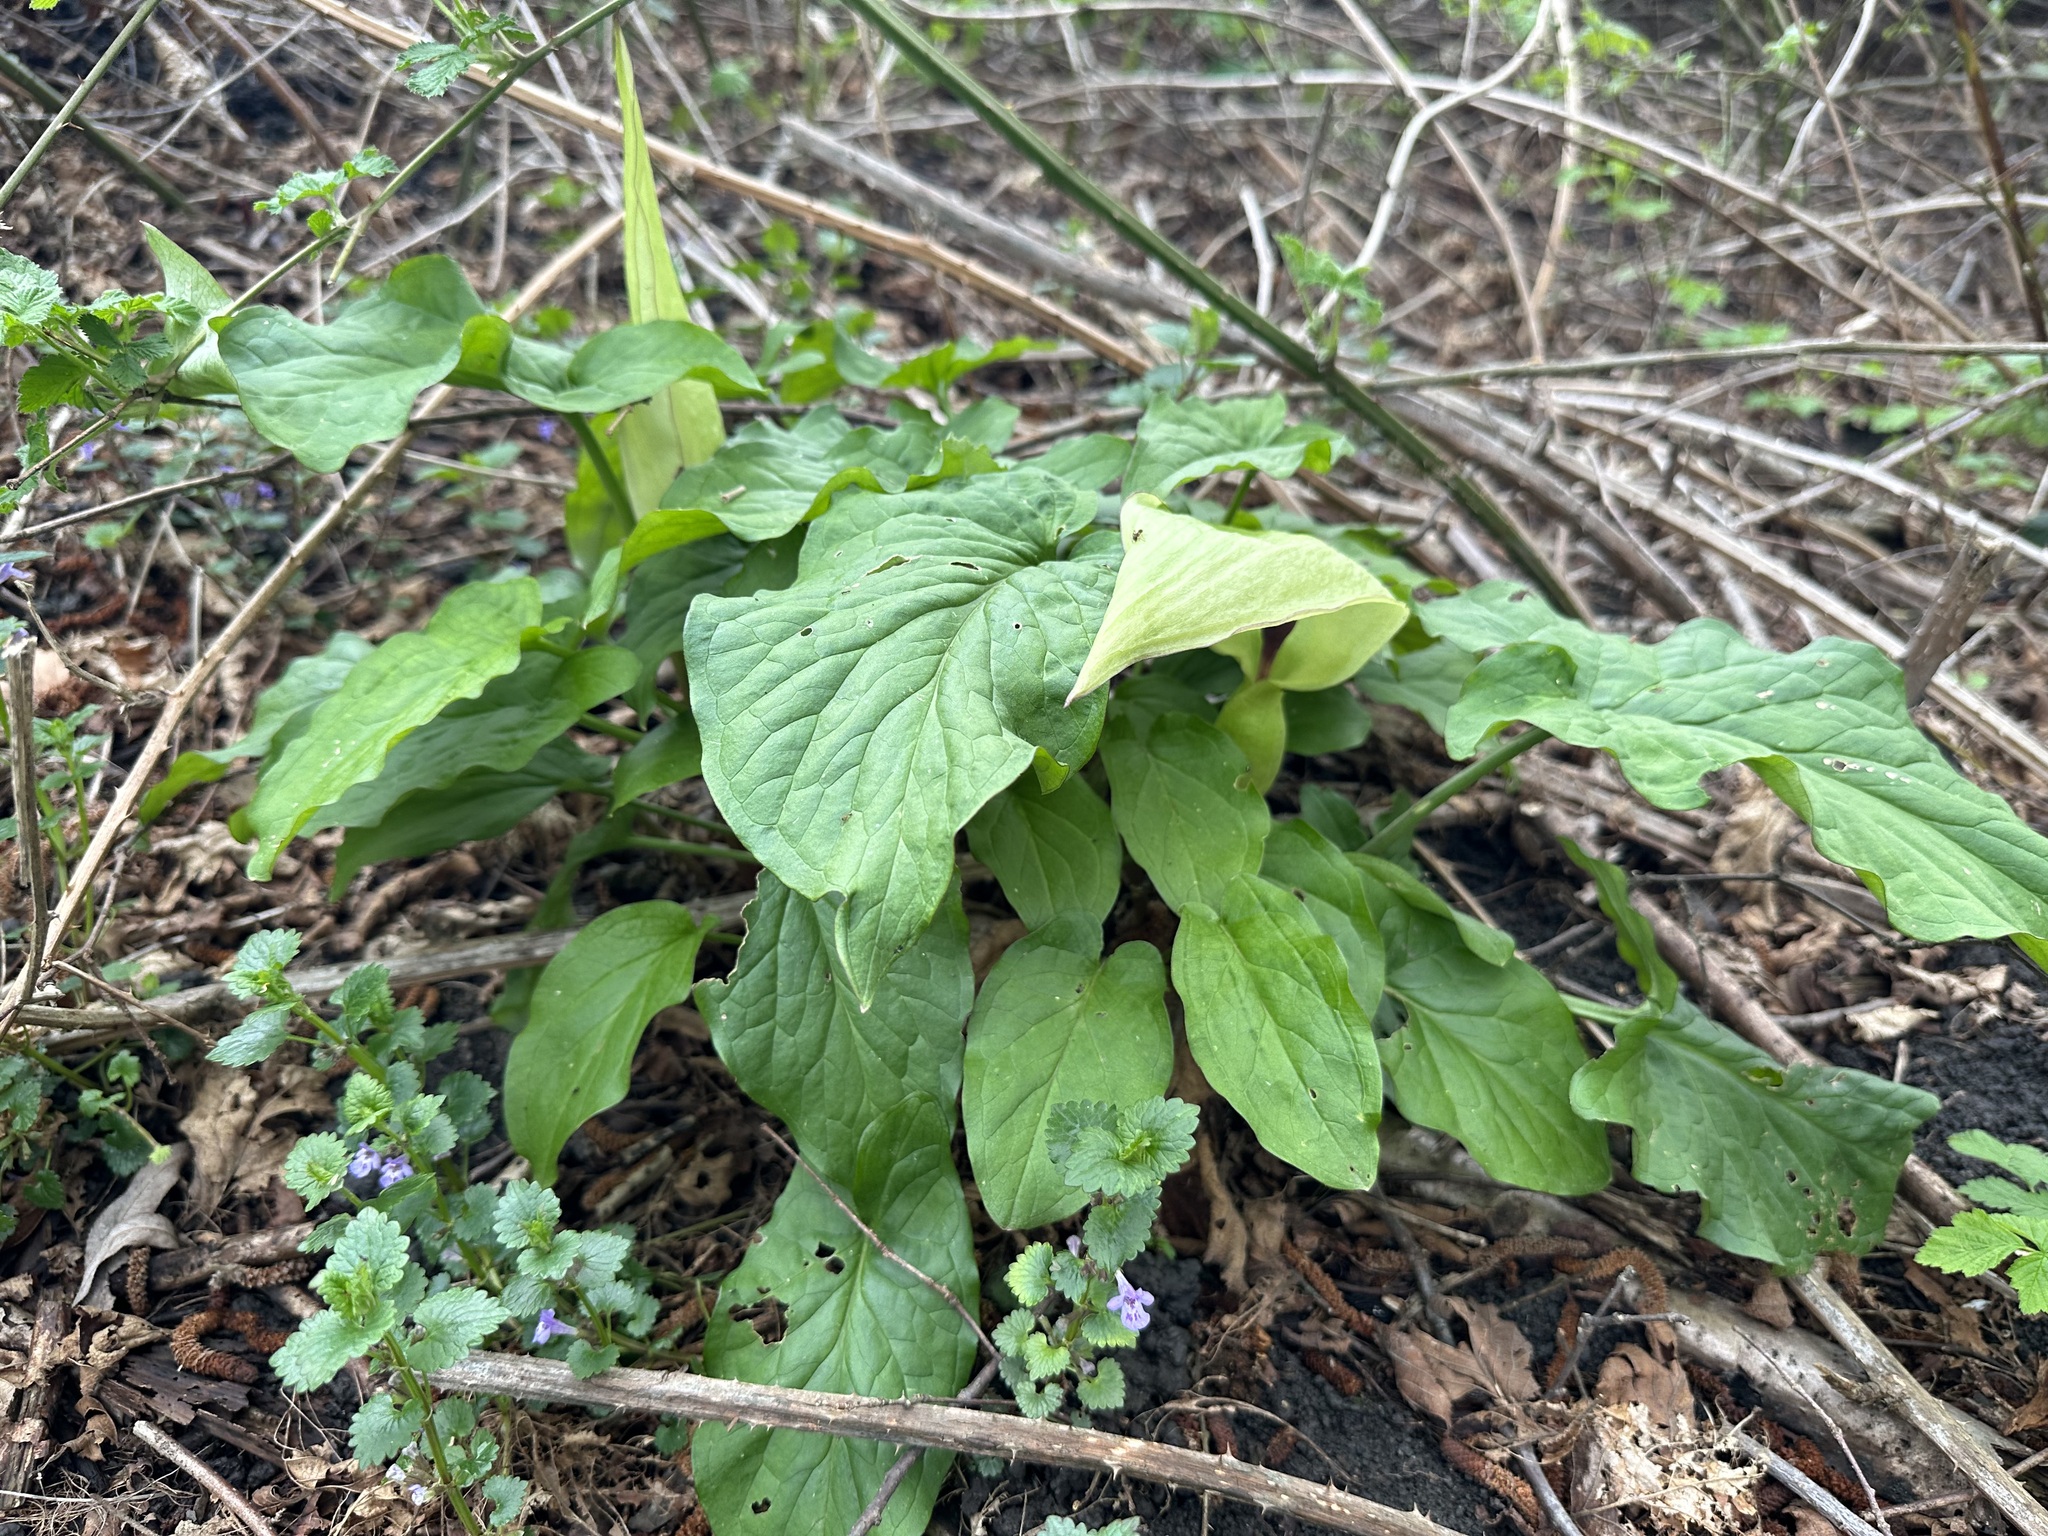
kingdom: Plantae
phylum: Tracheophyta
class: Liliopsida
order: Alismatales
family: Araceae
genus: Arum
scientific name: Arum maculatum
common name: Lords-and-ladies
